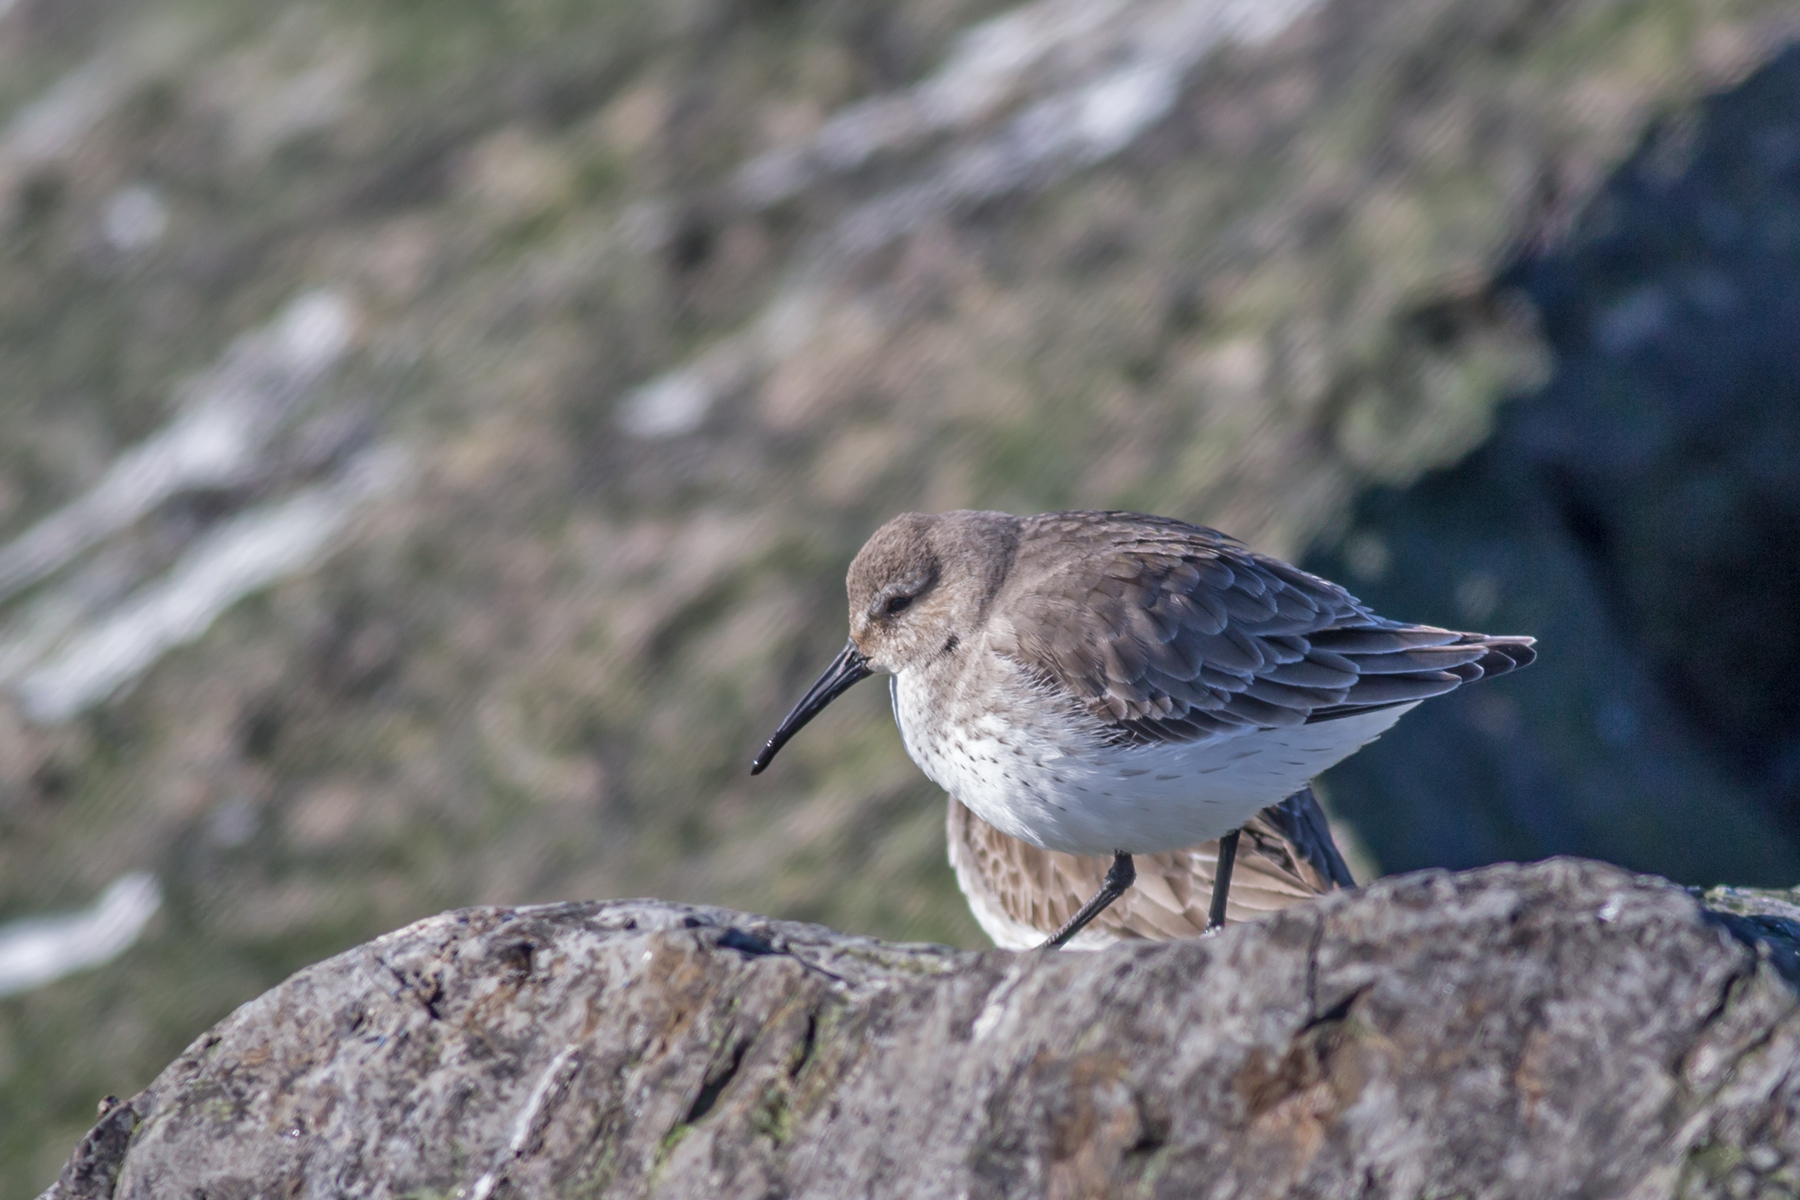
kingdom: Animalia
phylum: Chordata
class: Aves
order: Charadriiformes
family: Scolopacidae
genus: Calidris
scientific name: Calidris alpina
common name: Dunlin
